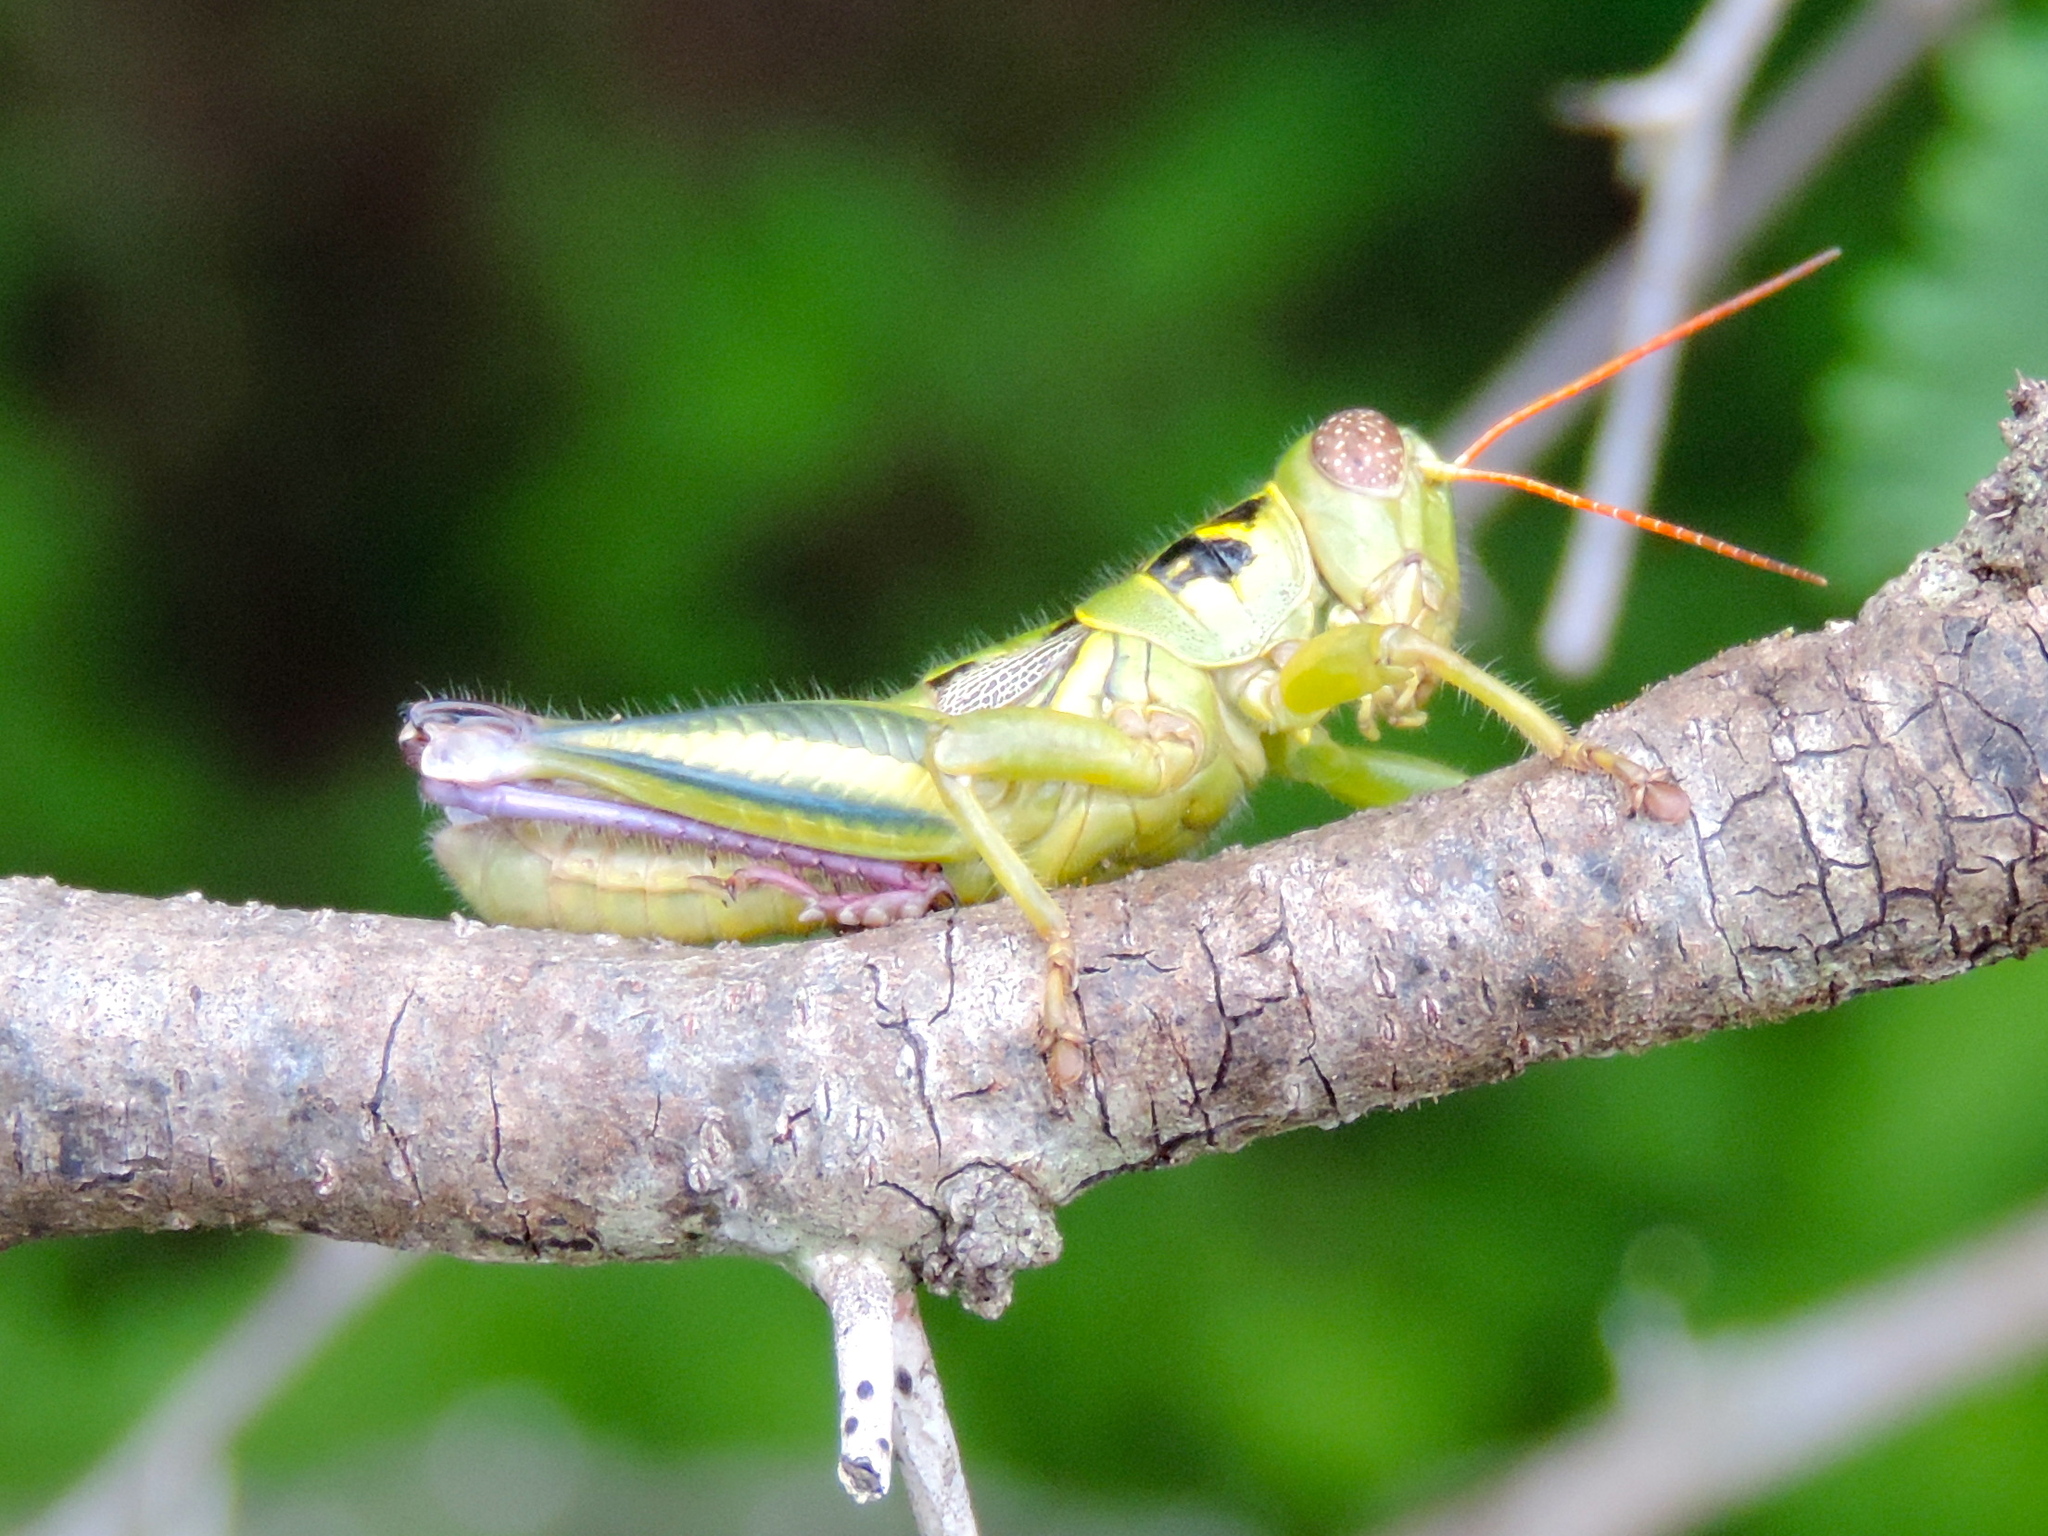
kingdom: Animalia
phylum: Arthropoda
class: Insecta
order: Orthoptera
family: Acrididae
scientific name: Acrididae
